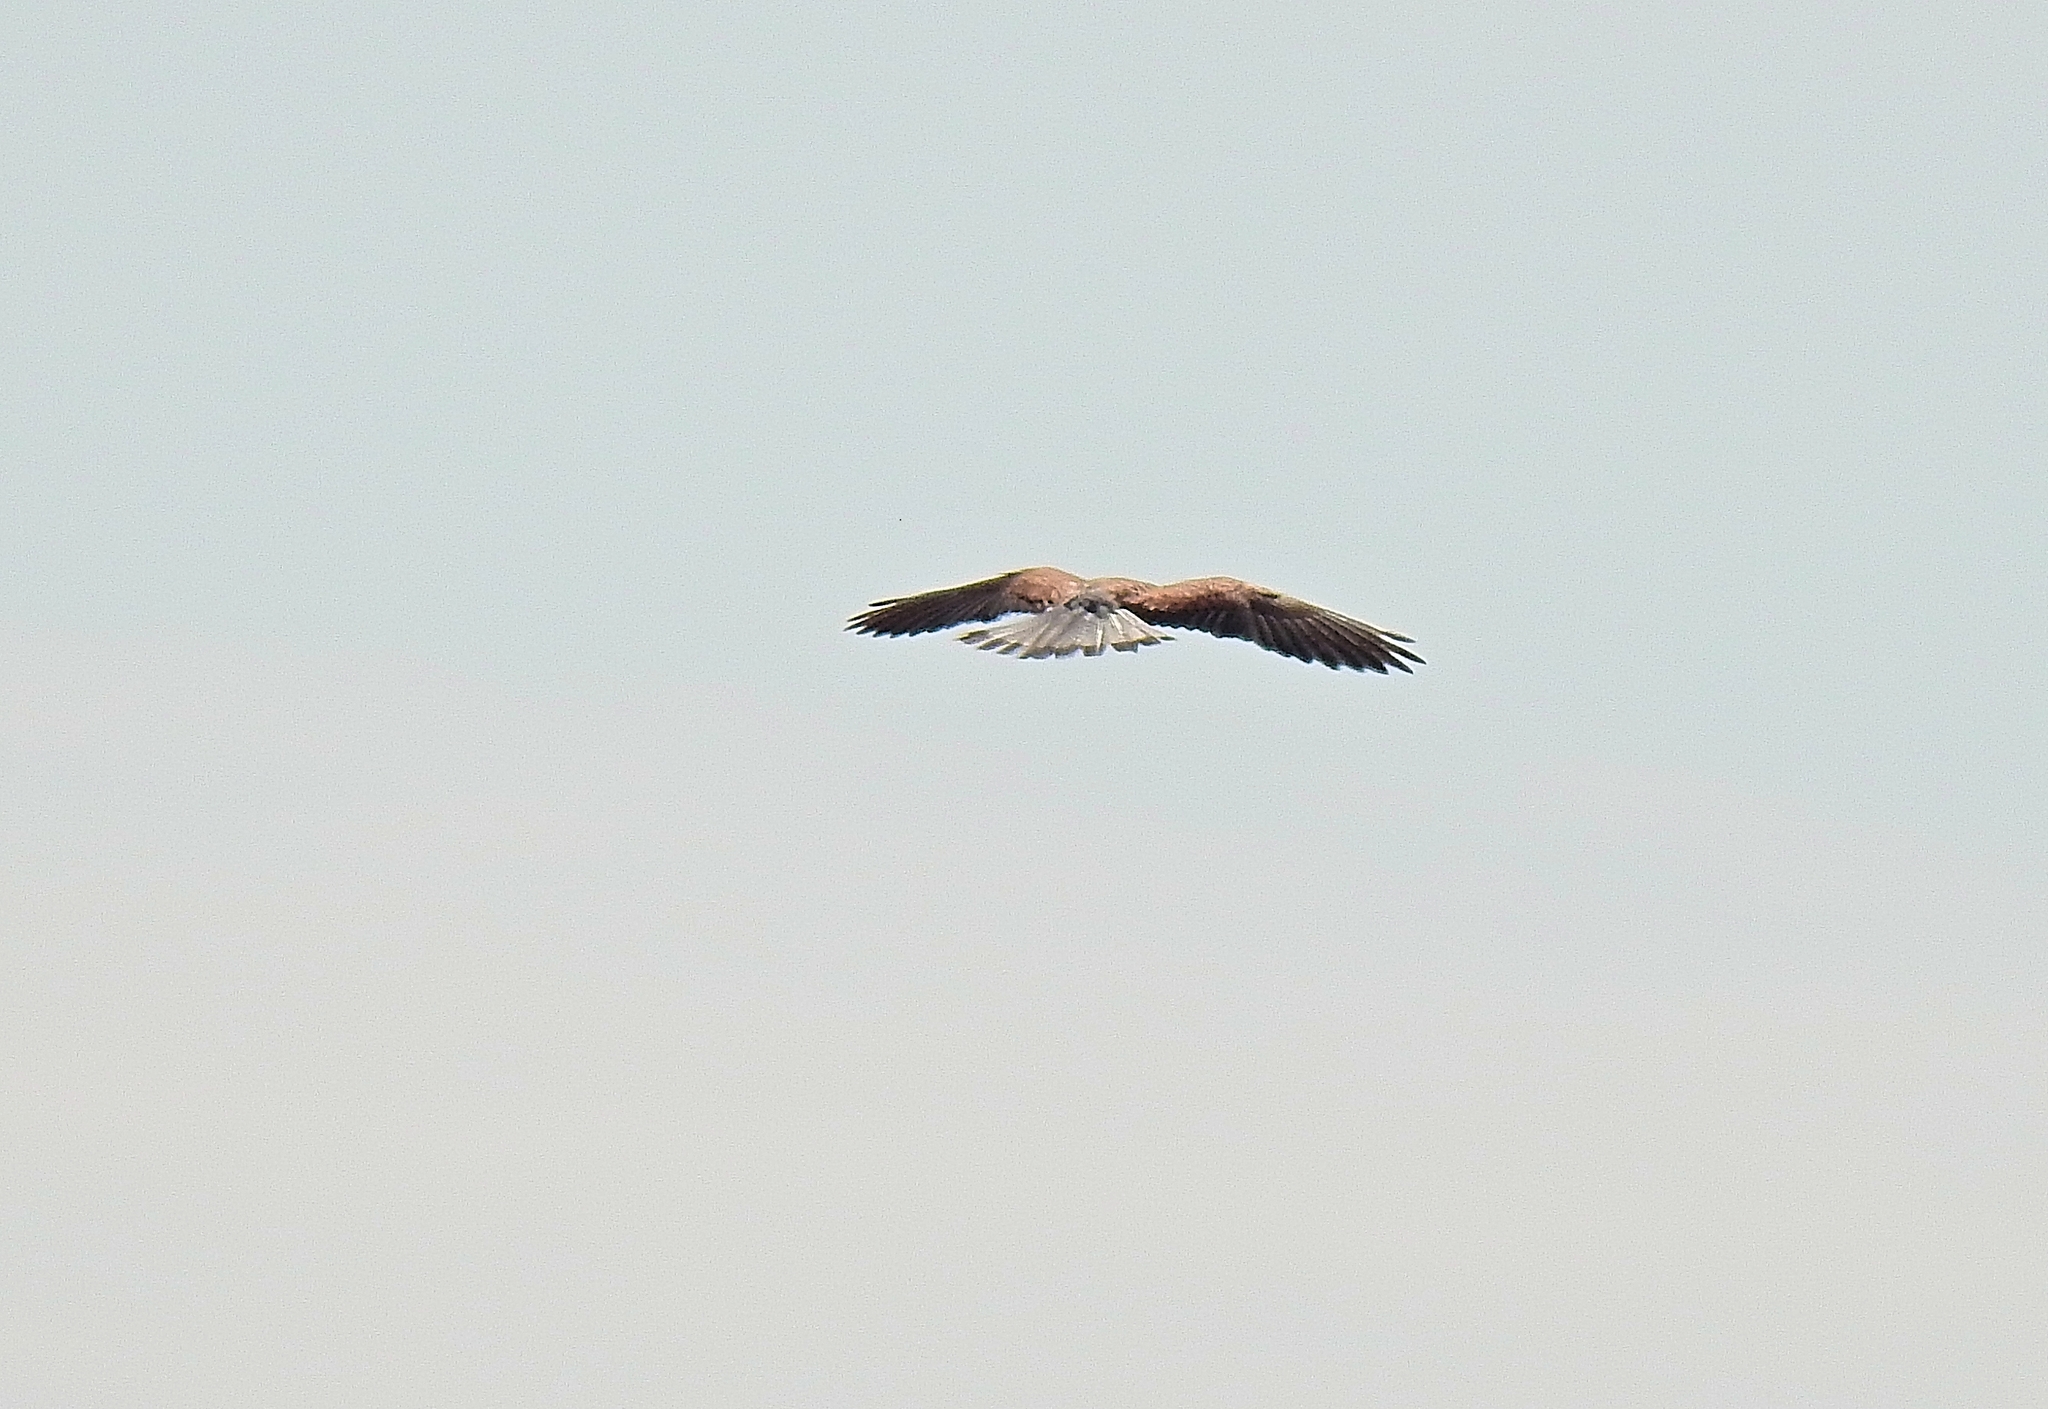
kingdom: Animalia
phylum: Chordata
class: Aves
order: Falconiformes
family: Falconidae
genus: Falco
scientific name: Falco tinnunculus
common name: Common kestrel
